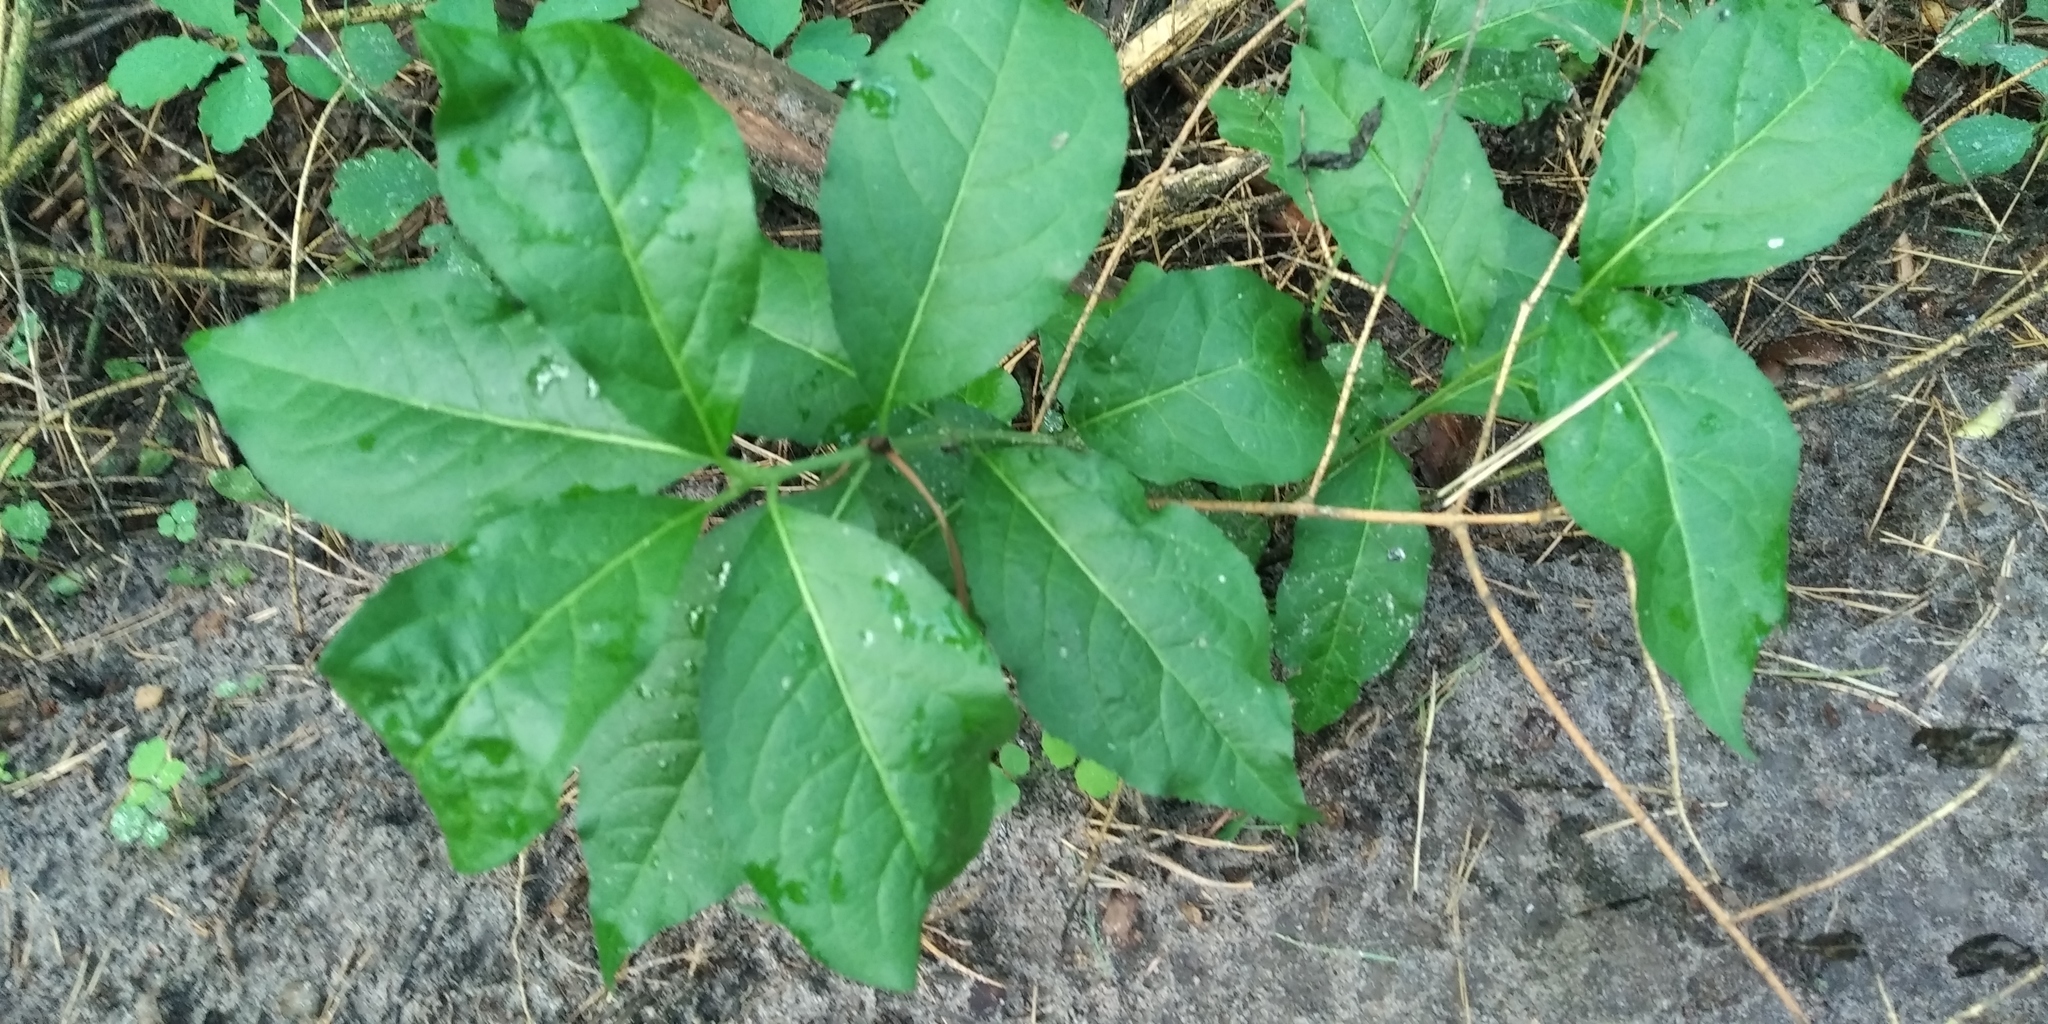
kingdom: Plantae
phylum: Tracheophyta
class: Magnoliopsida
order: Celastrales
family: Celastraceae
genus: Euonymus
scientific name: Euonymus europaeus
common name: Spindle
